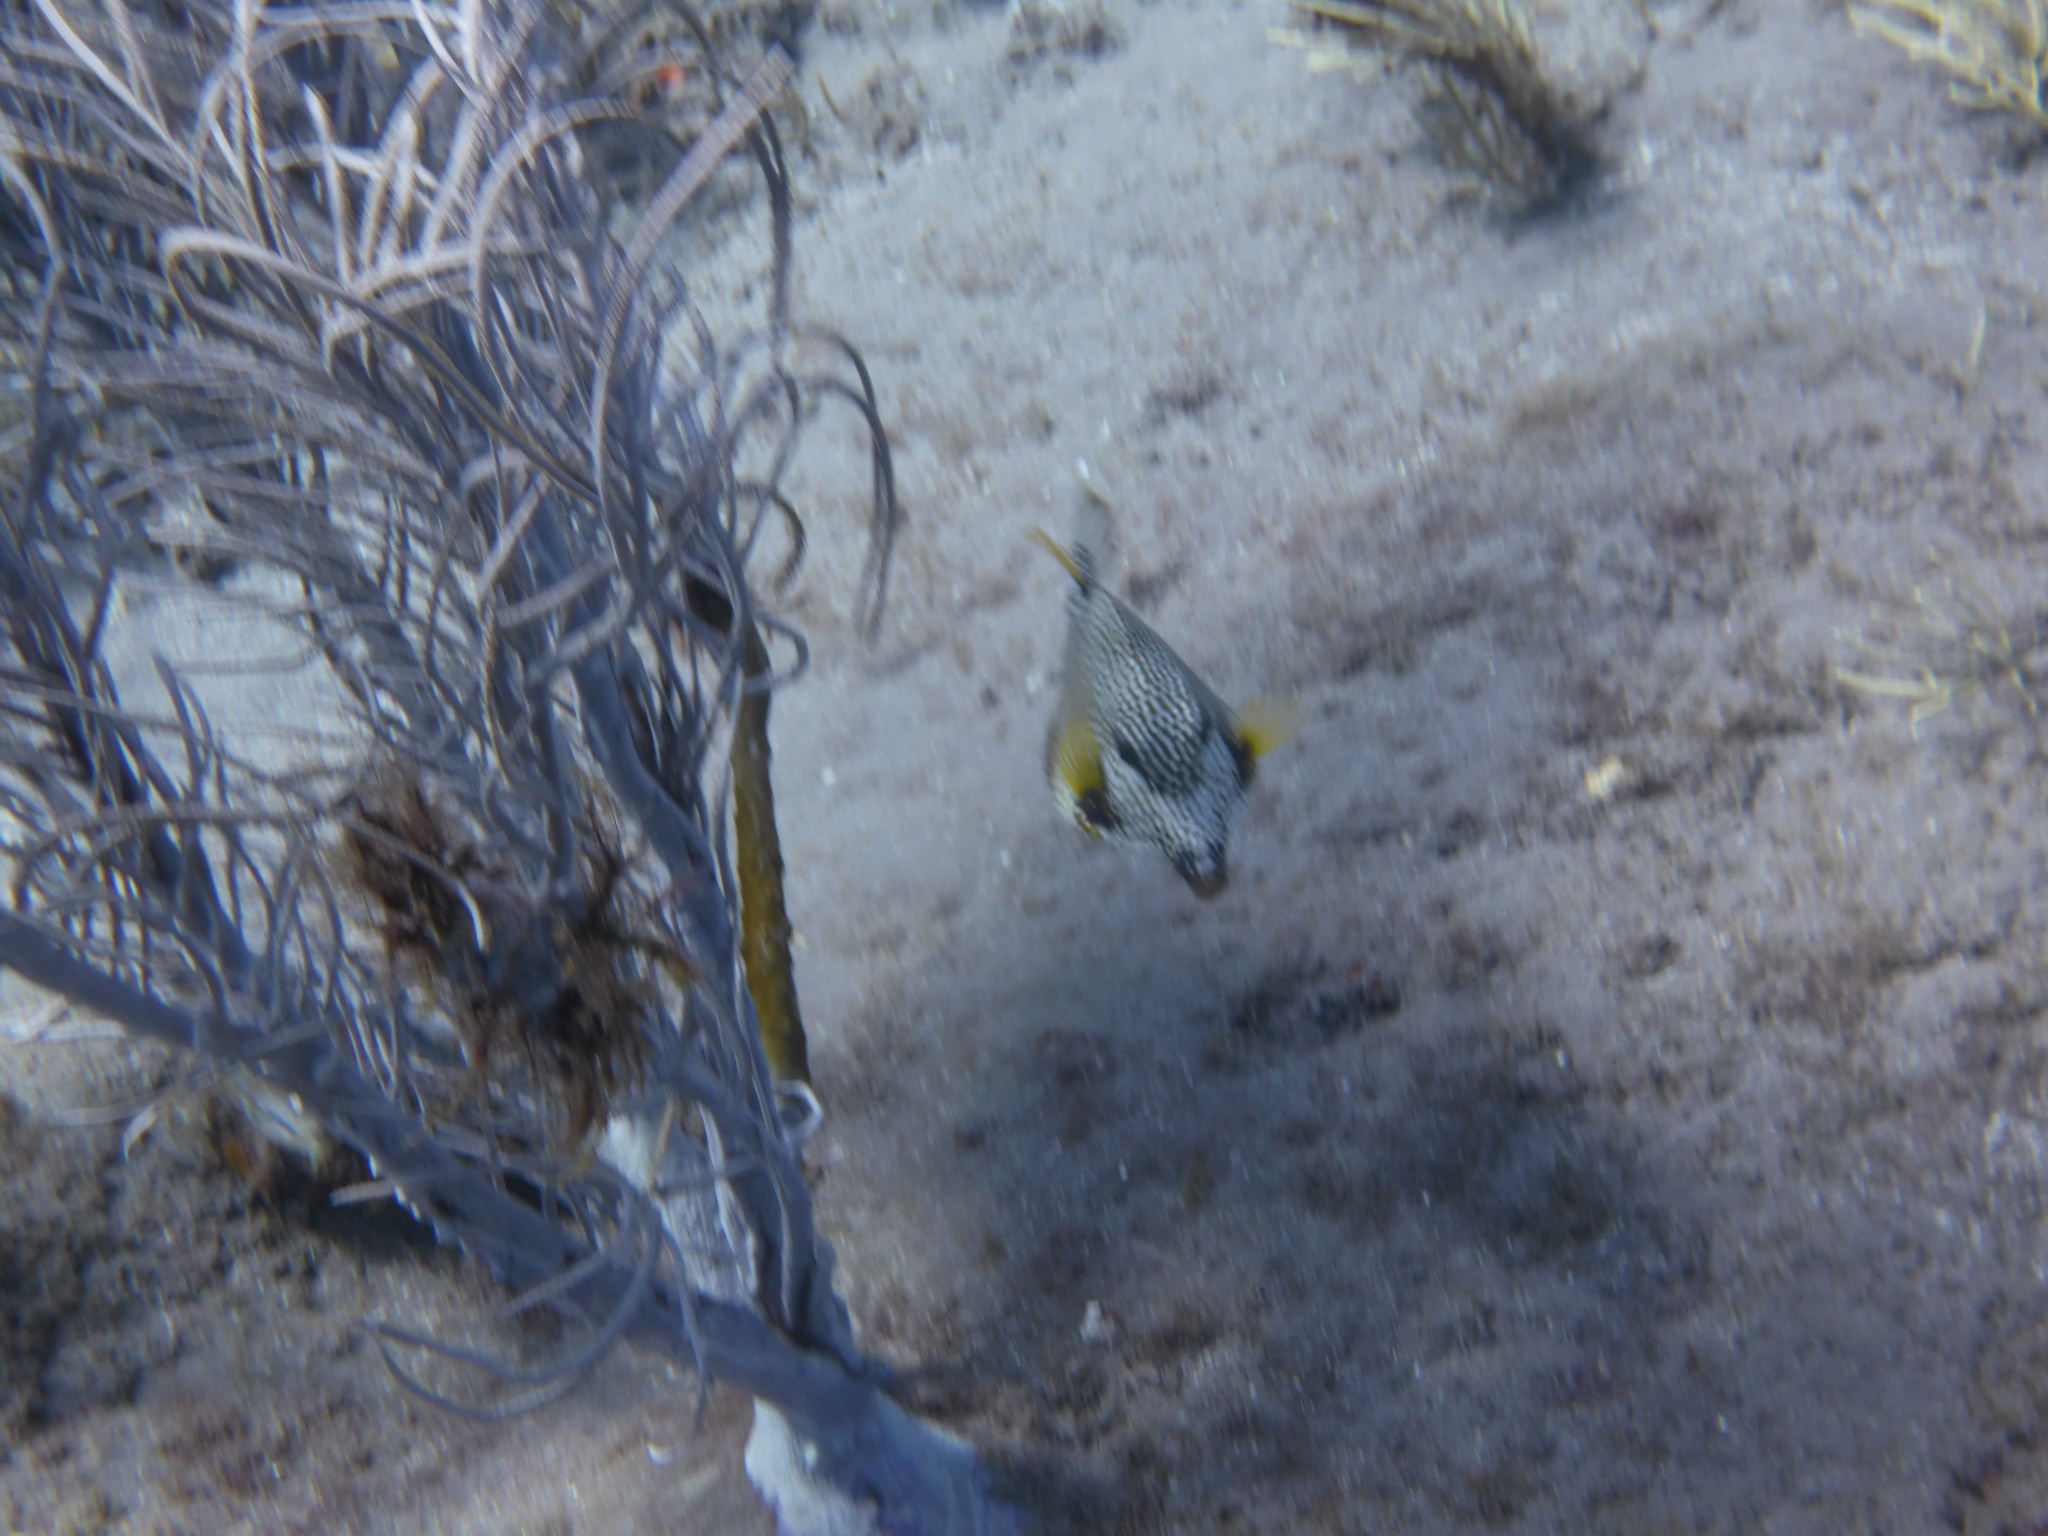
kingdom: Animalia
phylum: Chordata
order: Tetraodontiformes
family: Ostraciidae
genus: Lactophrys
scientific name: Lactophrys triqueter
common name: Smooth trunkfish
